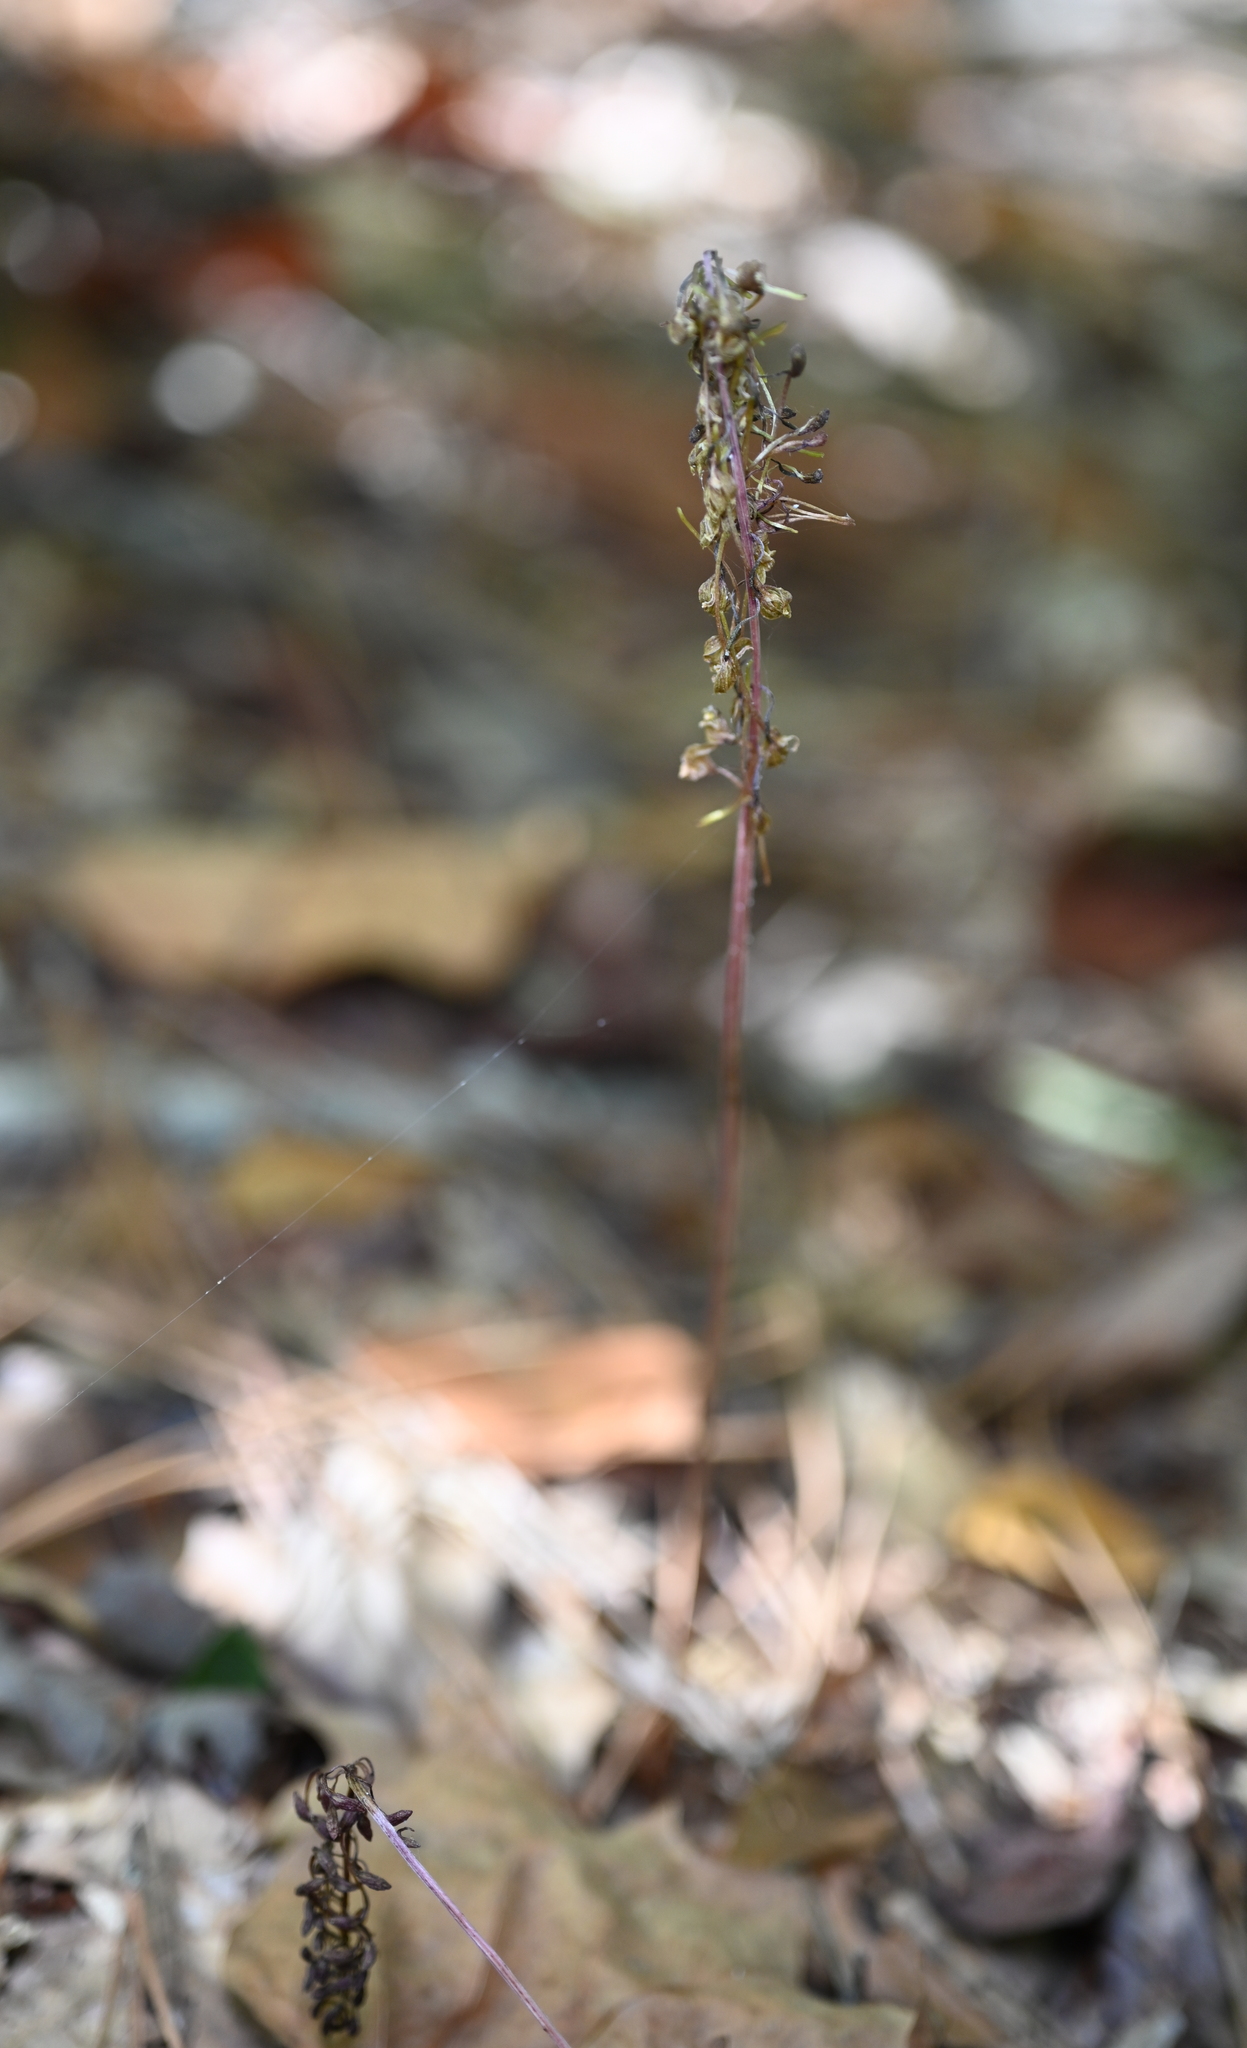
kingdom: Plantae
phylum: Tracheophyta
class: Liliopsida
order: Asparagales
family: Orchidaceae
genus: Tipularia
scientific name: Tipularia discolor
